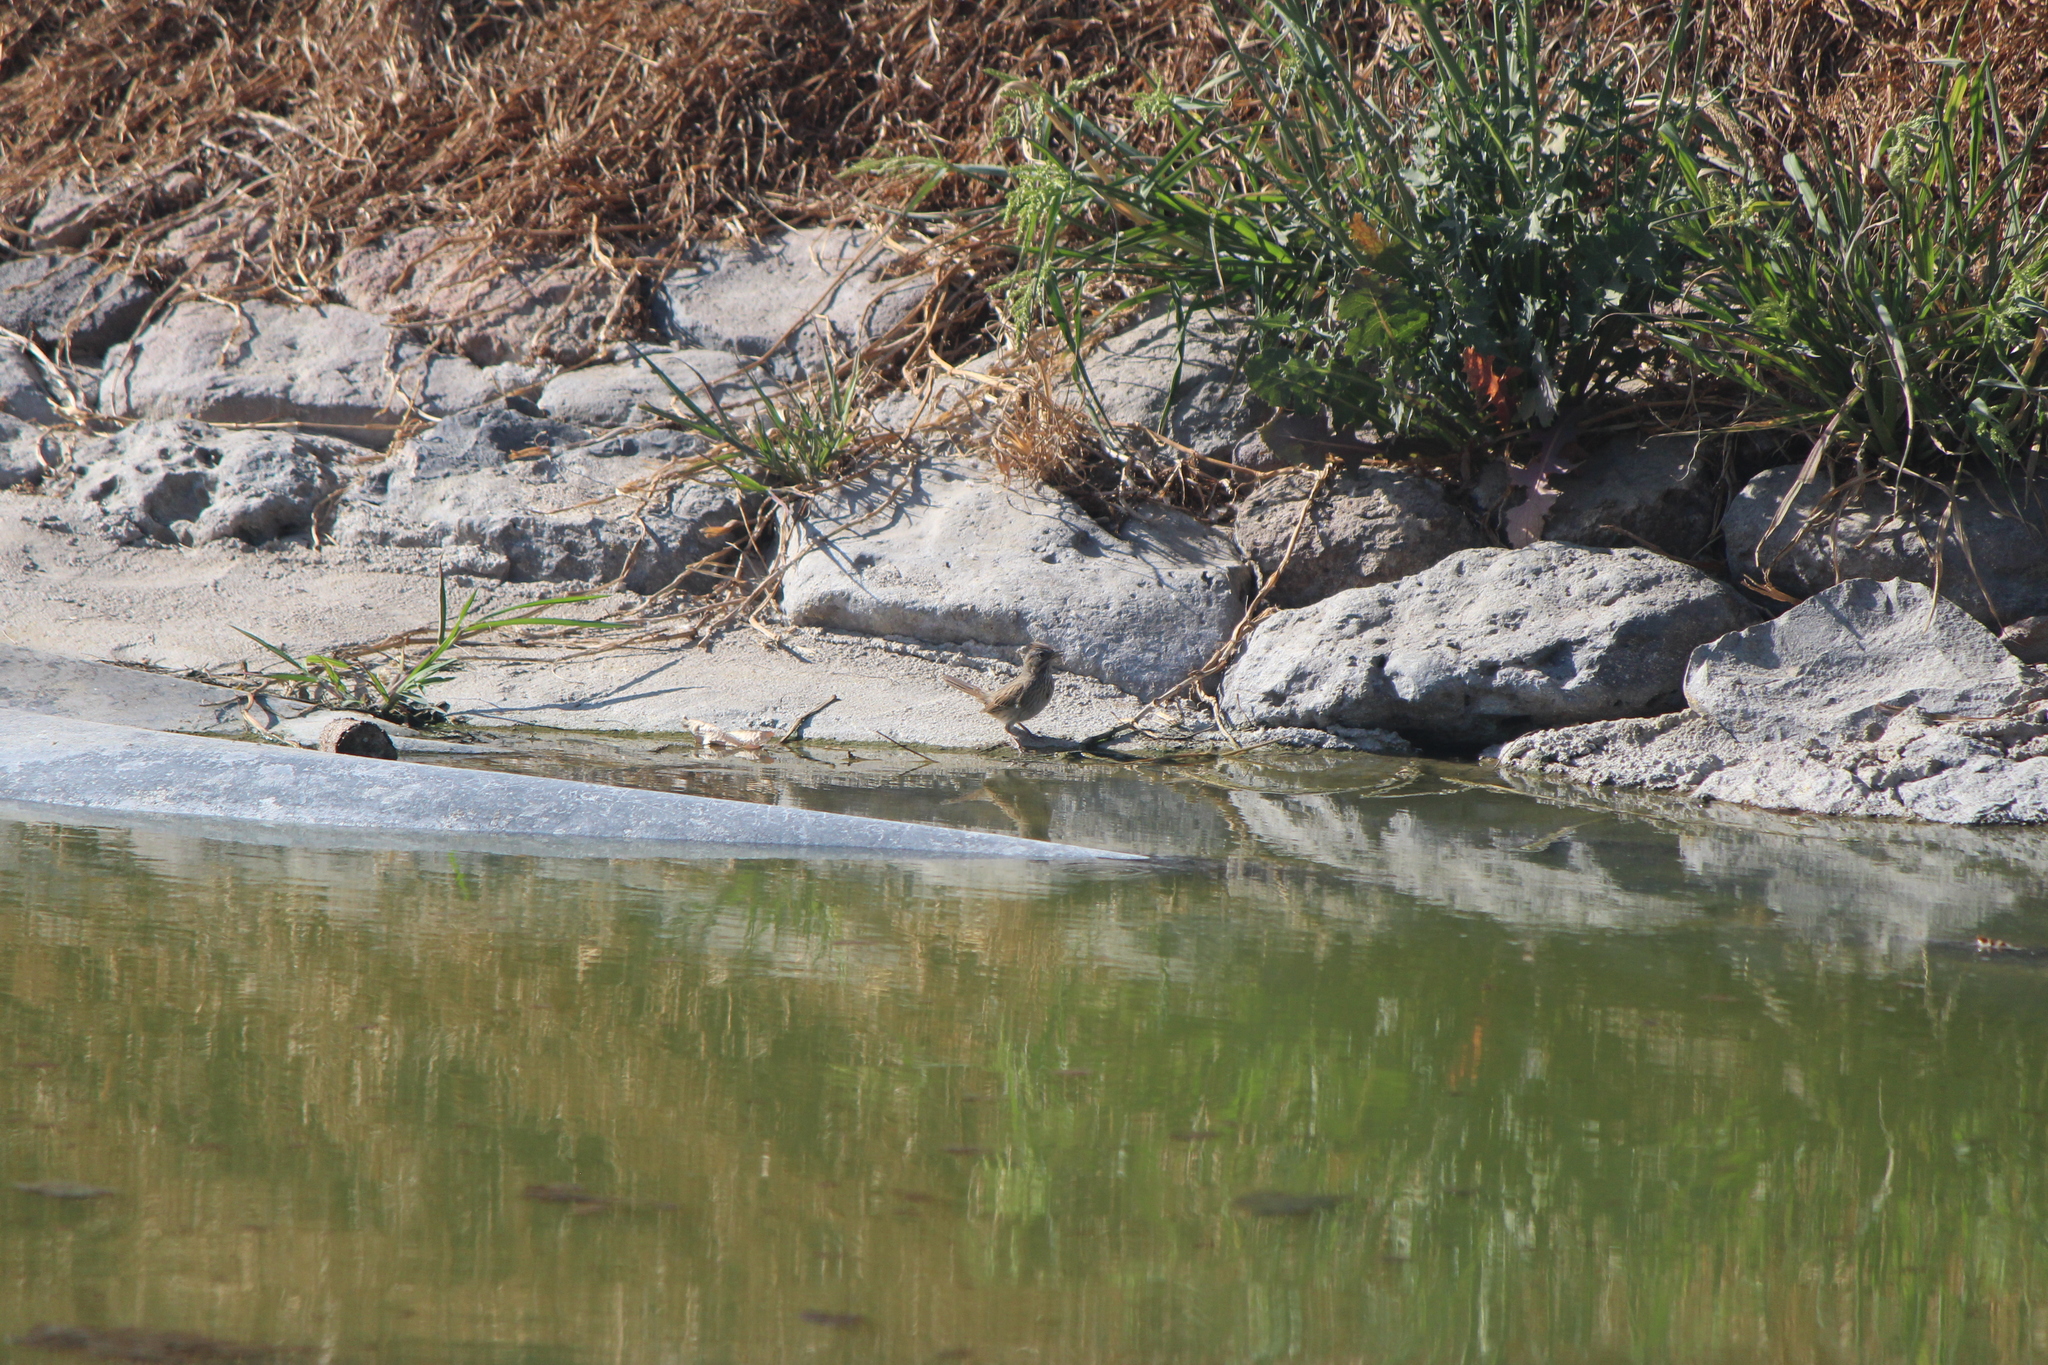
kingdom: Animalia
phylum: Chordata
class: Aves
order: Passeriformes
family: Passerellidae
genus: Melospiza
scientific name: Melospiza lincolnii
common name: Lincoln's sparrow
